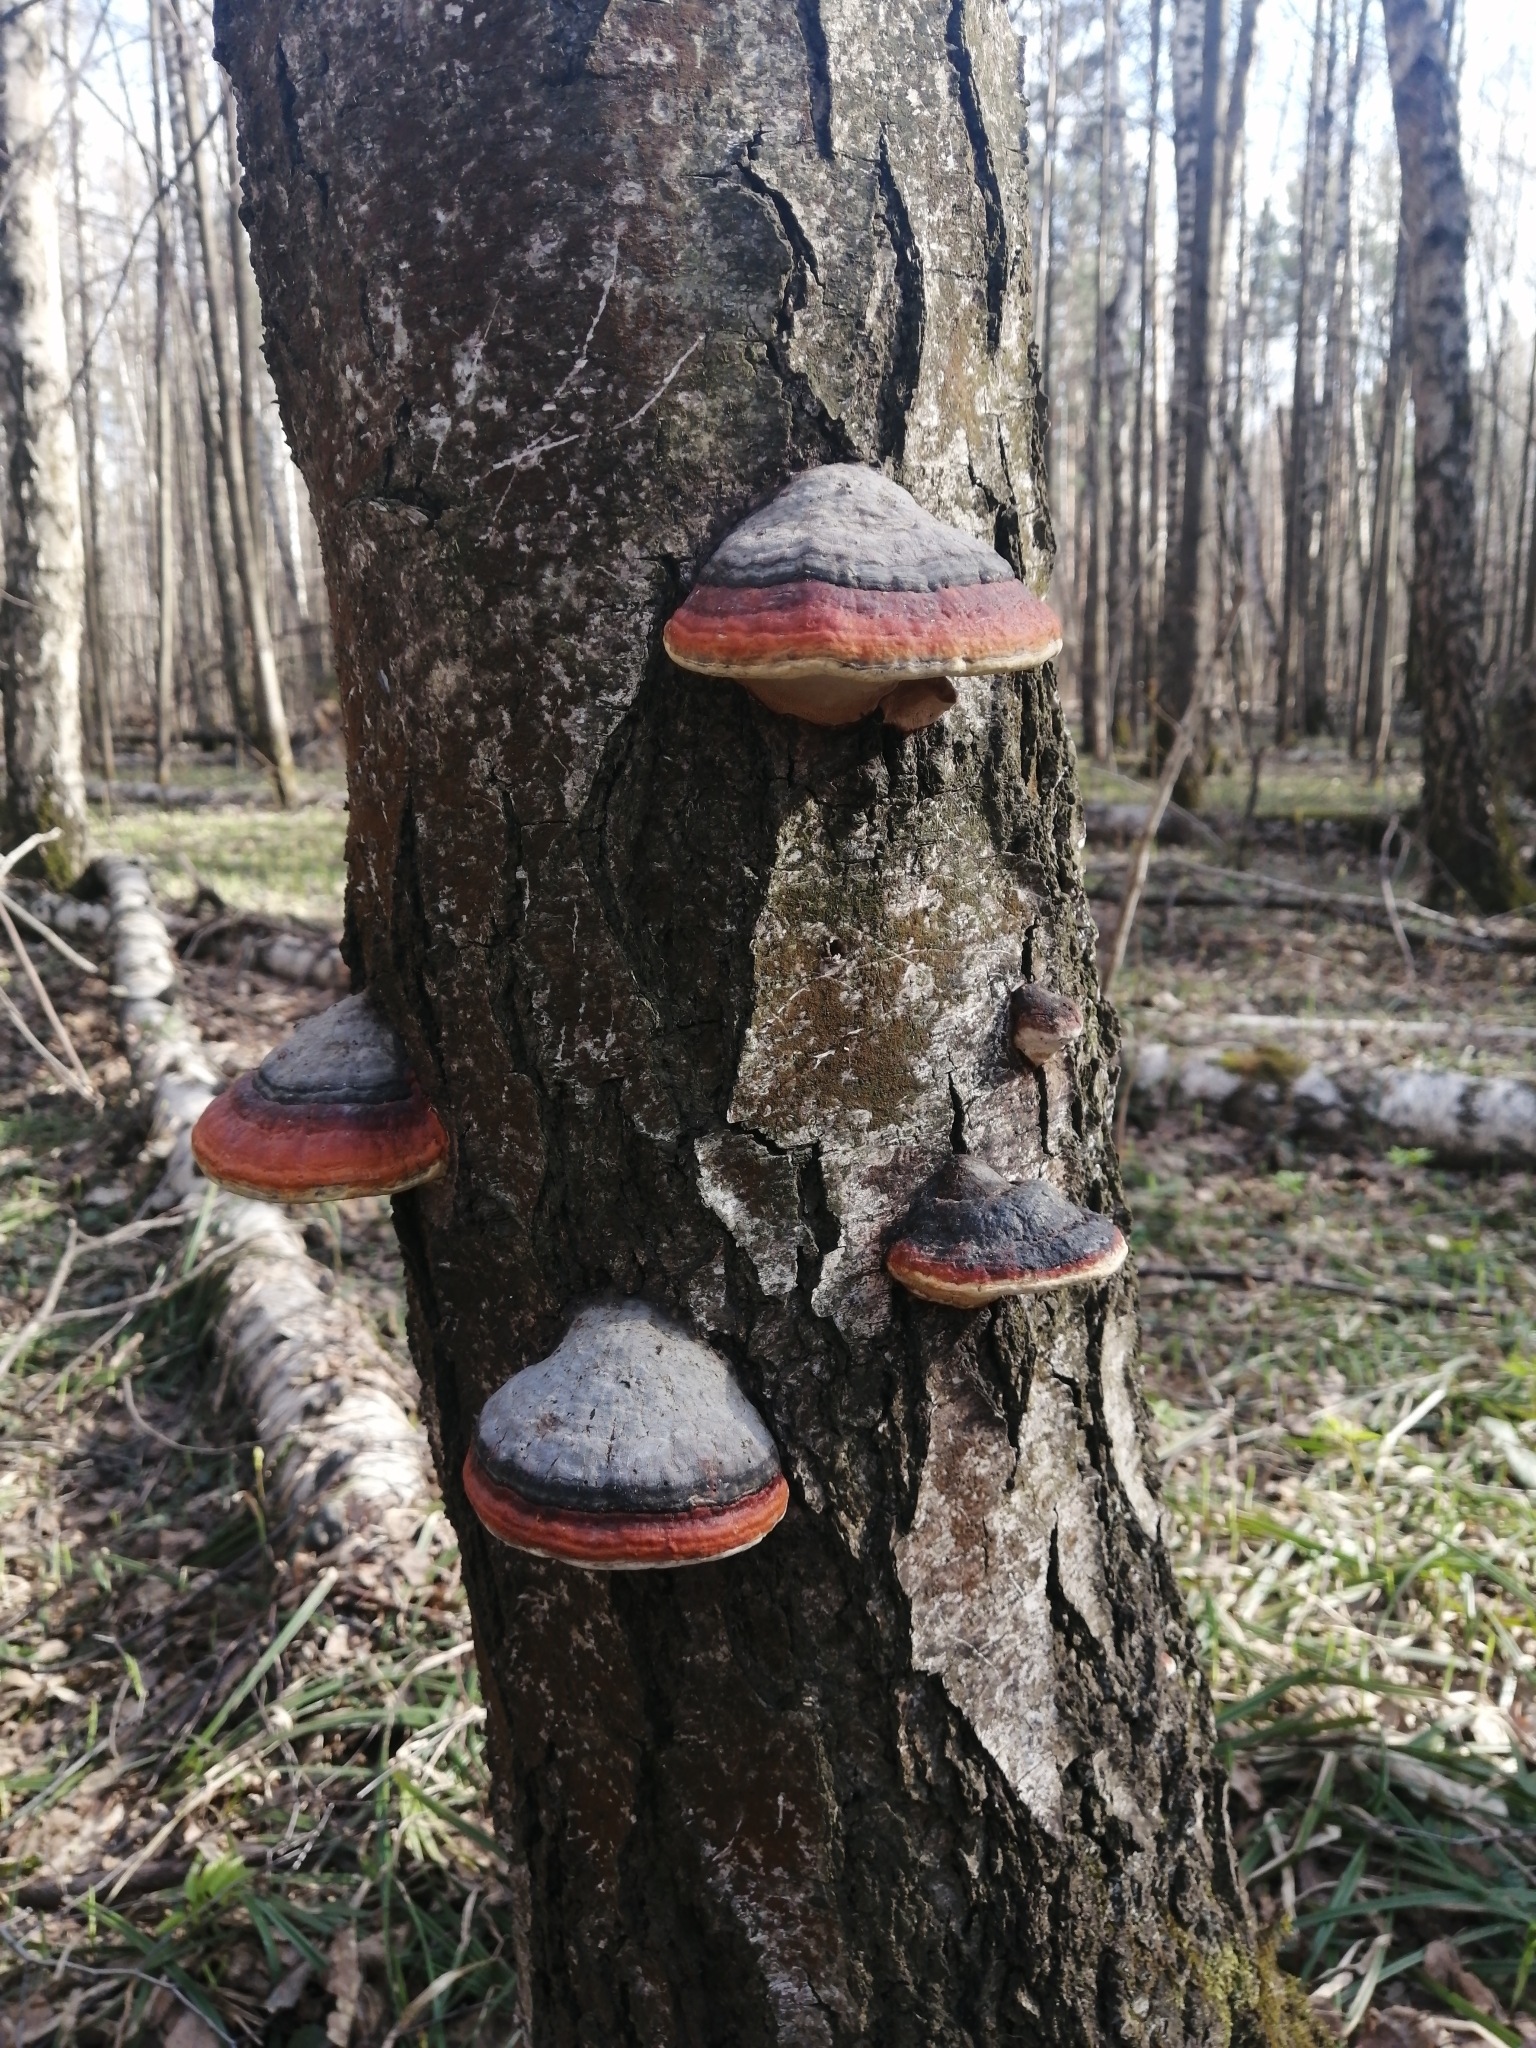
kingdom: Fungi
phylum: Basidiomycota
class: Agaricomycetes
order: Polyporales
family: Fomitopsidaceae
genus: Fomitopsis
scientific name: Fomitopsis pinicola
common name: Red-belted bracket
